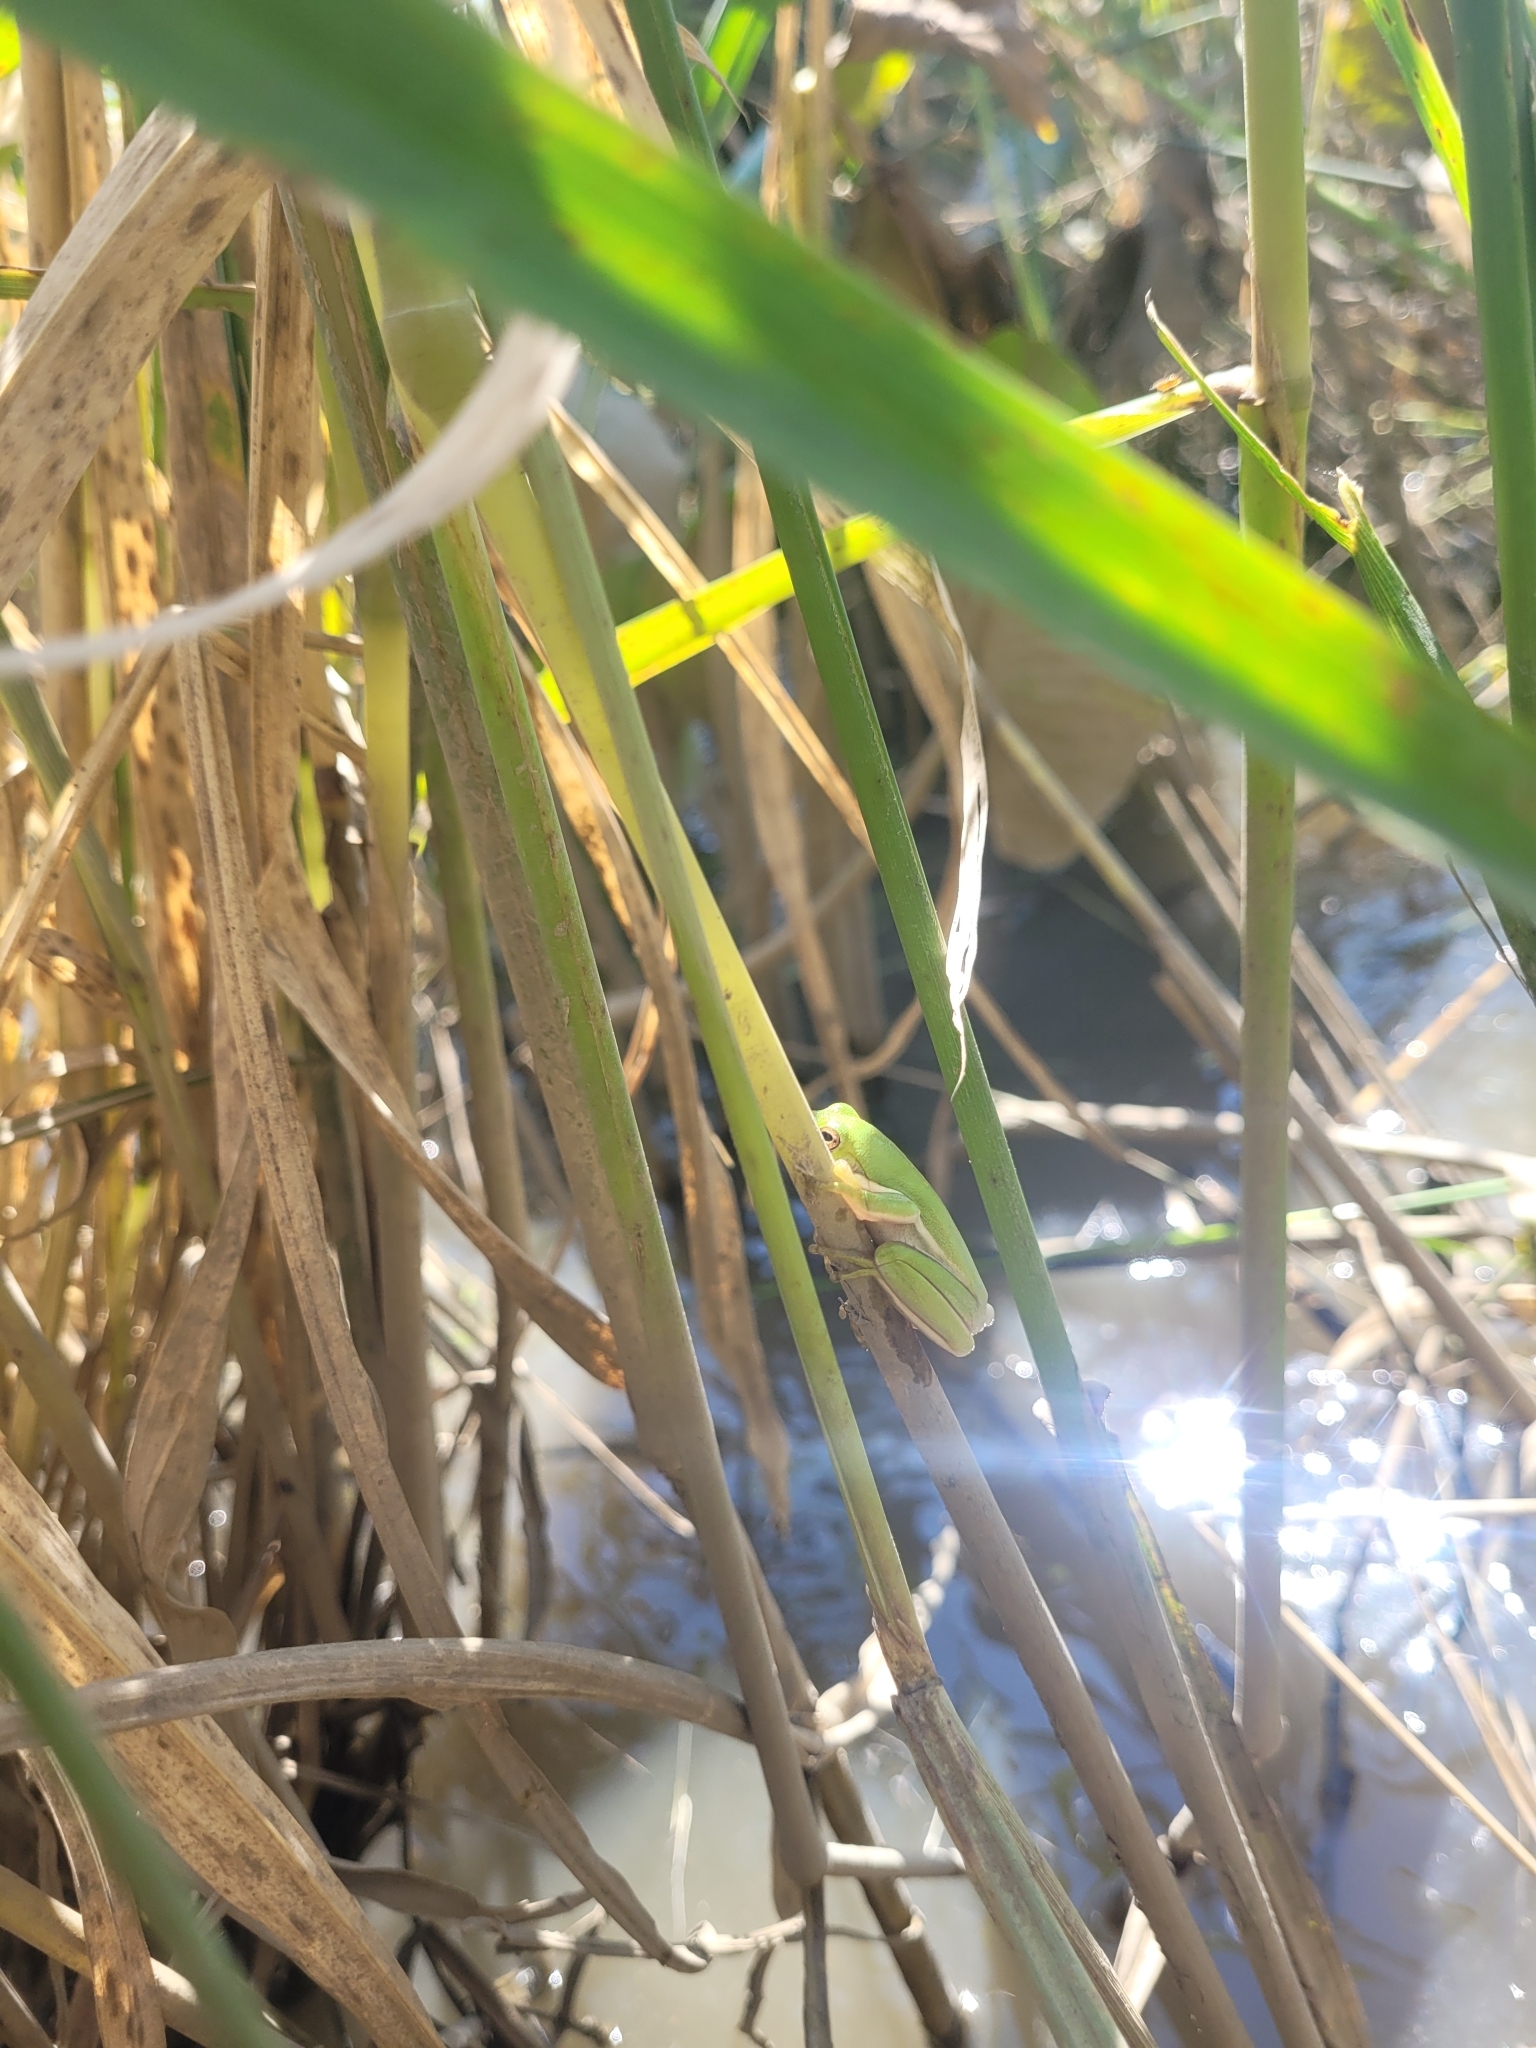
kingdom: Animalia
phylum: Chordata
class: Amphibia
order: Anura
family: Hylidae
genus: Dryophytes
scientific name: Dryophytes cinereus
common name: Green treefrog
